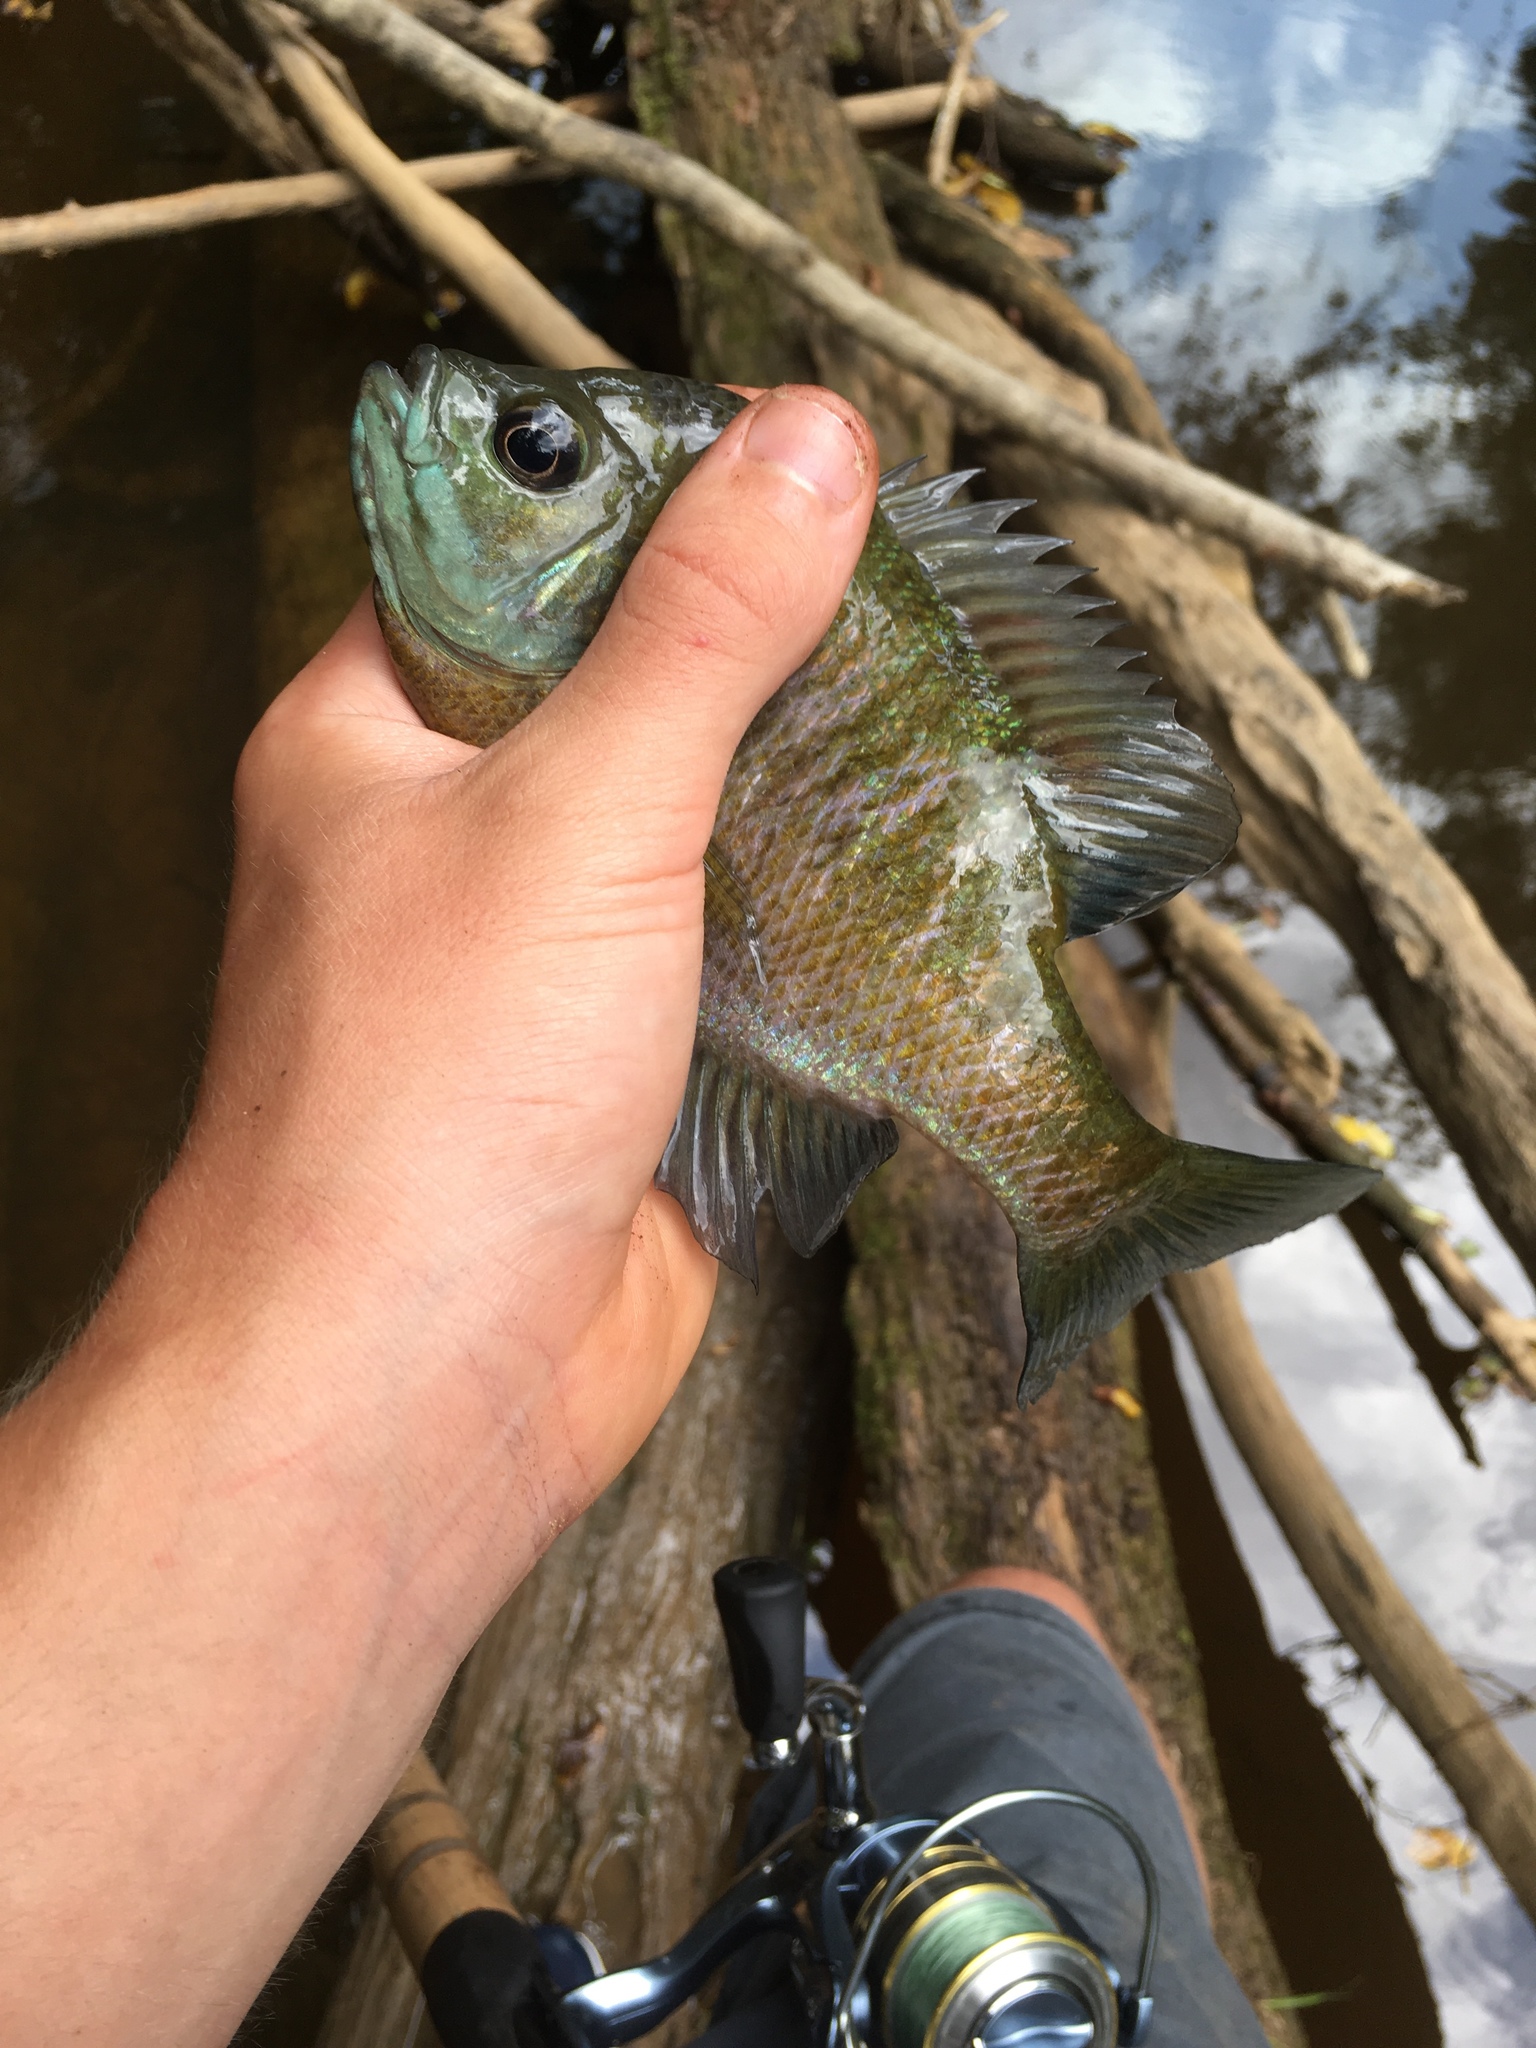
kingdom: Animalia
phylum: Chordata
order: Perciformes
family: Centrarchidae
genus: Lepomis
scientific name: Lepomis macrochirus
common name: Bluegill
